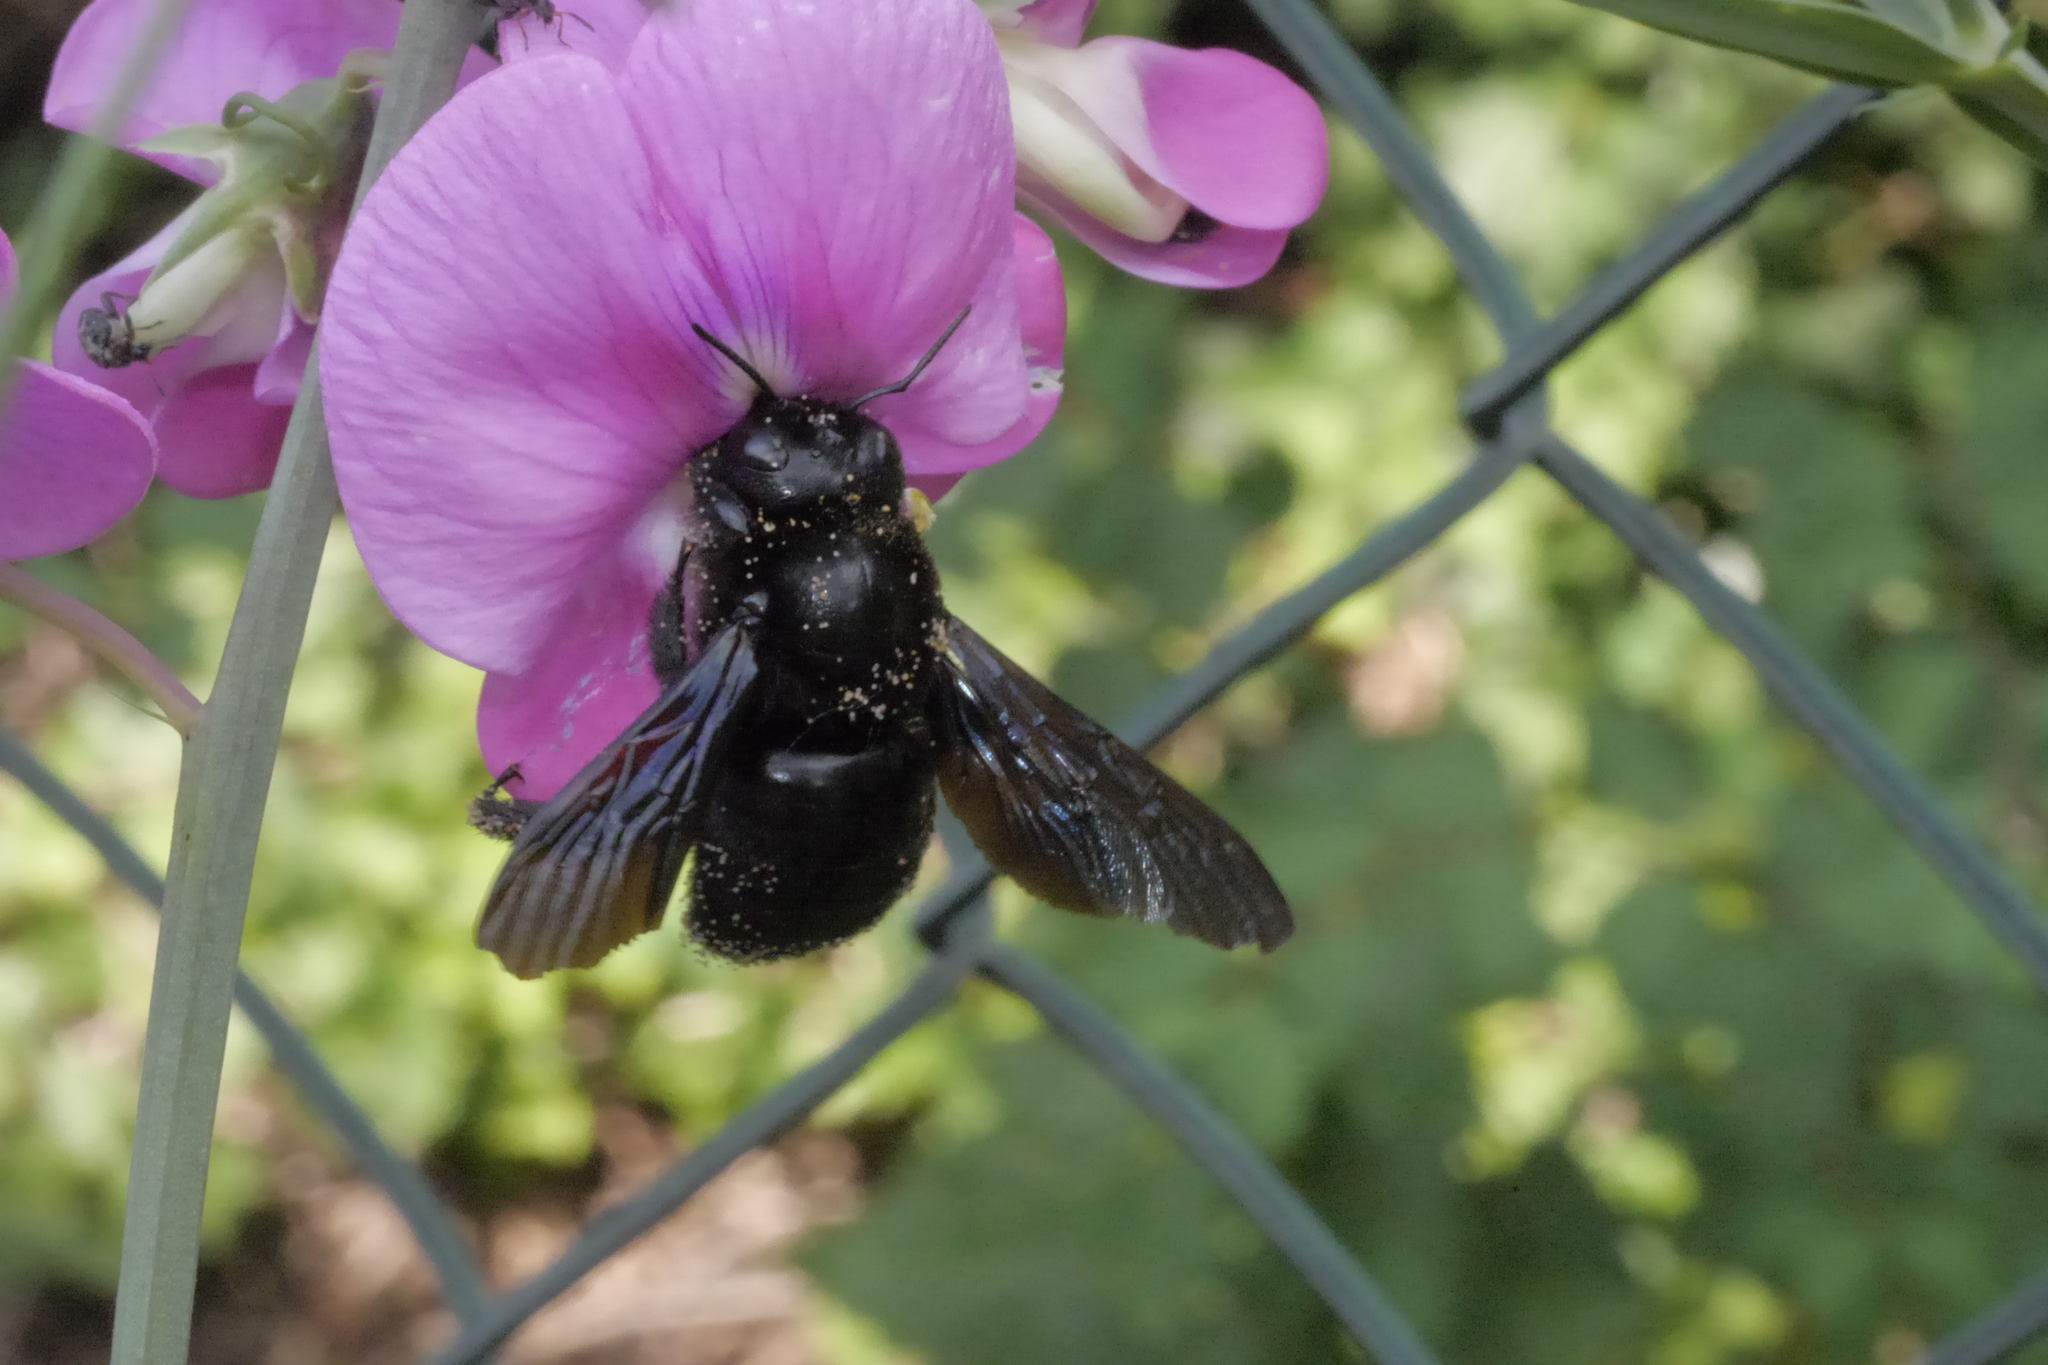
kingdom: Animalia
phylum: Arthropoda
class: Insecta
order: Hymenoptera
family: Apidae
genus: Xylocopa
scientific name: Xylocopa violacea
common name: Violet carpenter bee
